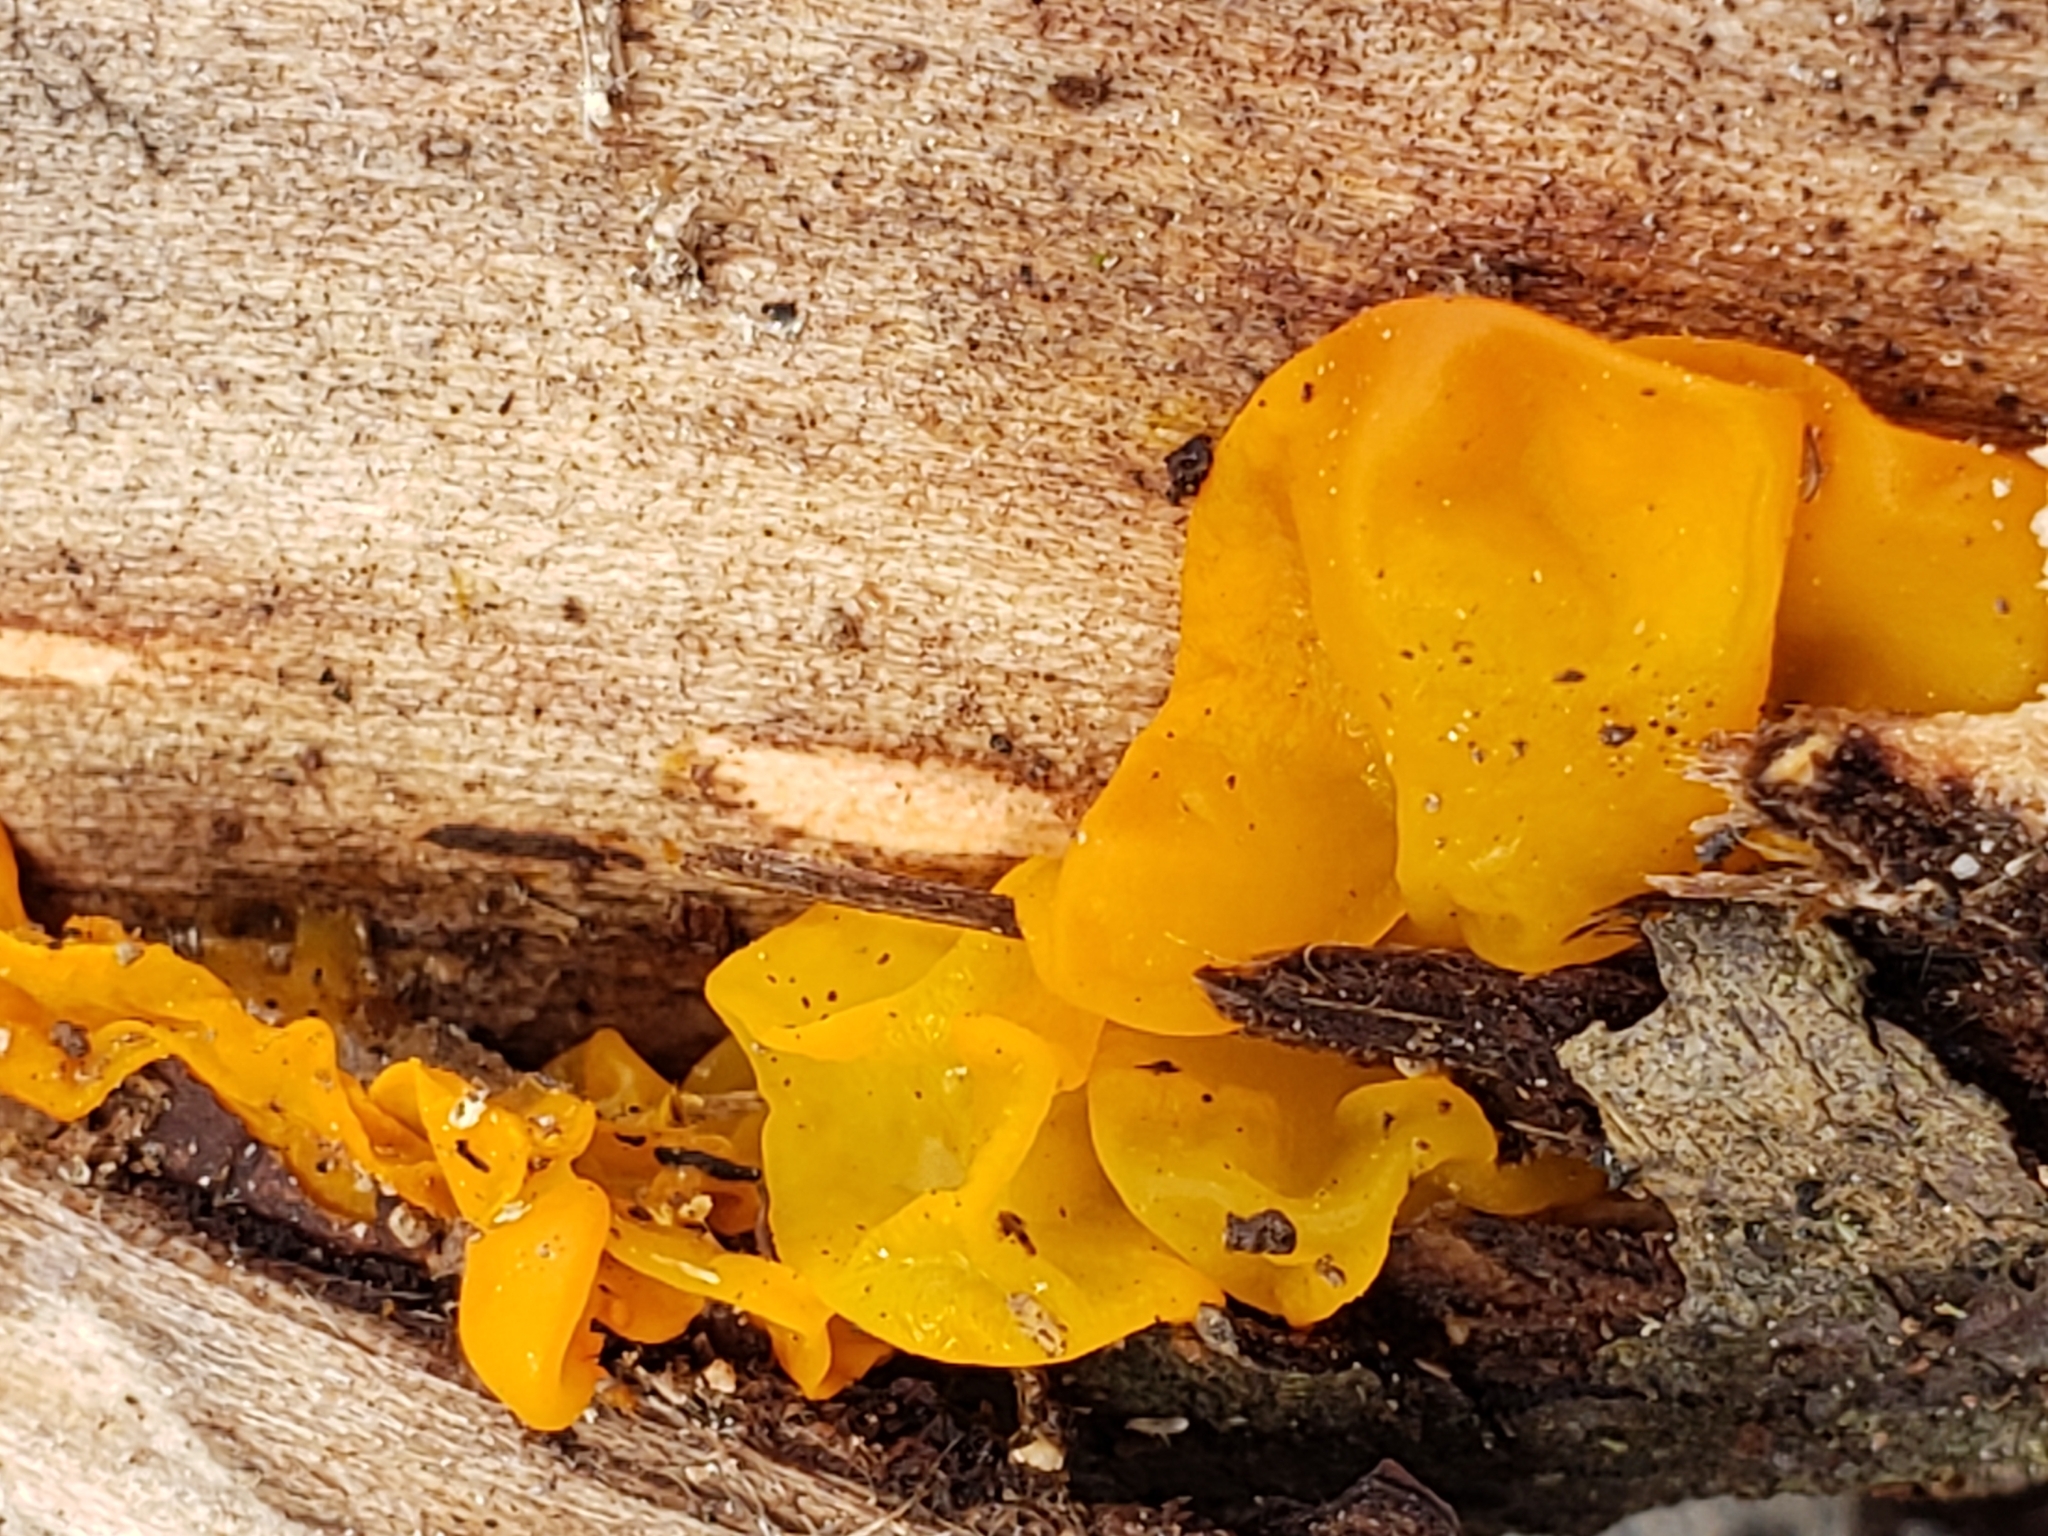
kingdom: Fungi
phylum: Basidiomycota
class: Dacrymycetes
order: Dacrymycetales
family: Dacrymycetaceae
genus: Dacrymyces
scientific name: Dacrymyces chrysospermus
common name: Orange jelly spot
